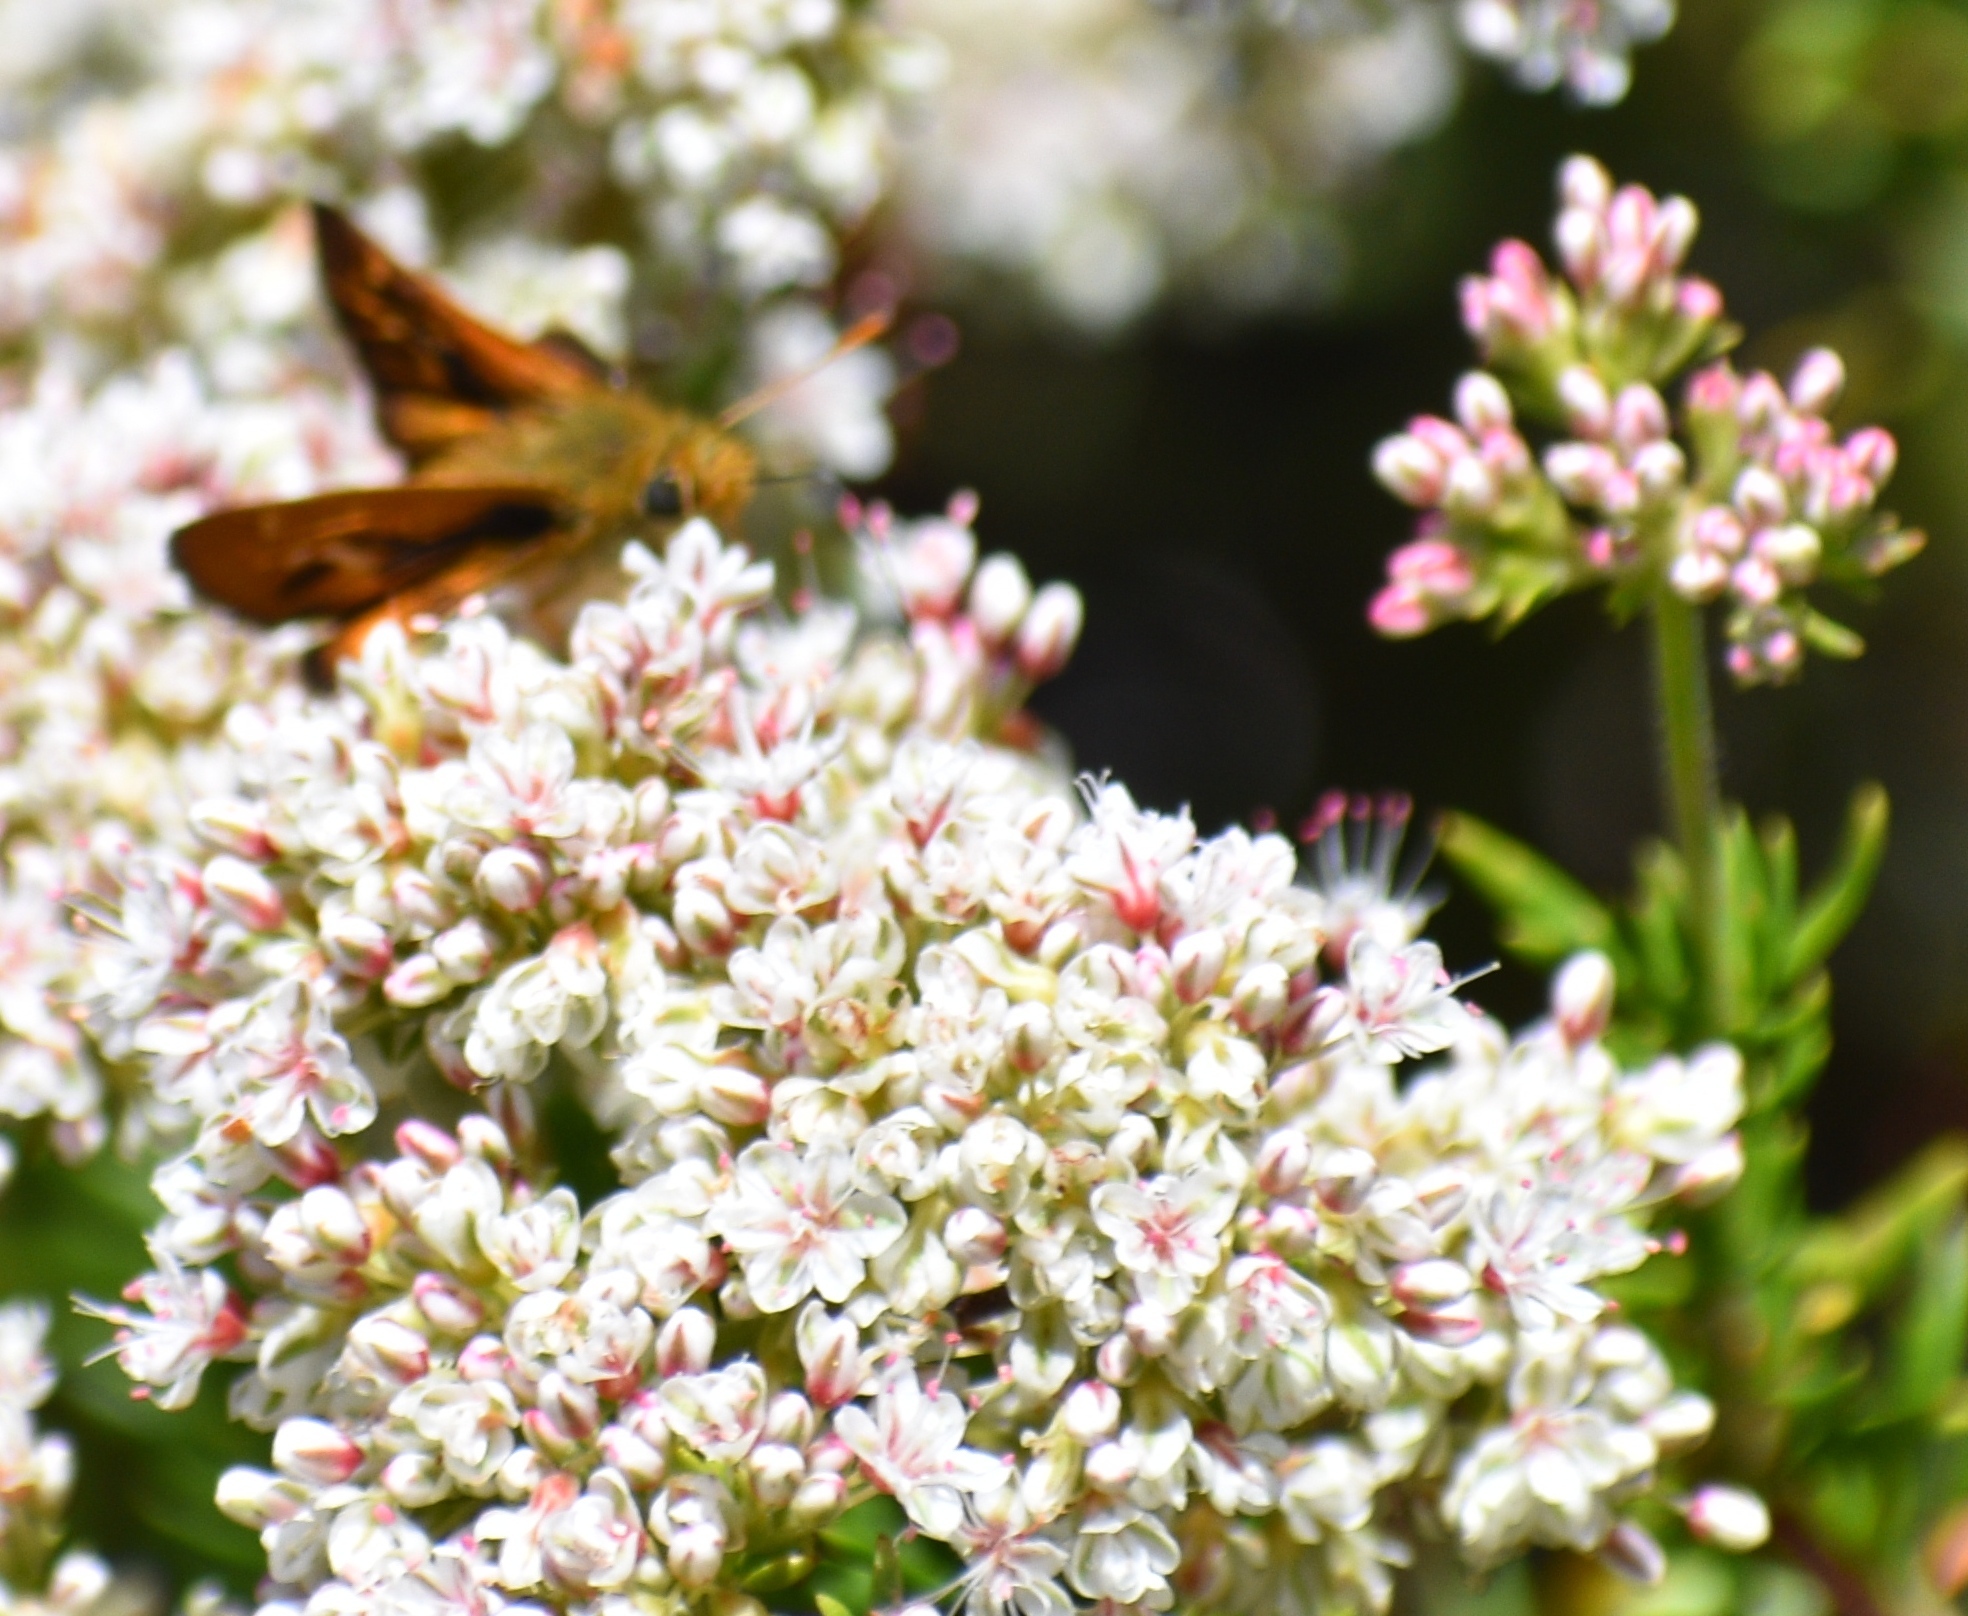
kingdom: Animalia
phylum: Arthropoda
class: Insecta
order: Lepidoptera
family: Hesperiidae
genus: Ochlodes
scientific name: Ochlodes agricola
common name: Rural skipper
